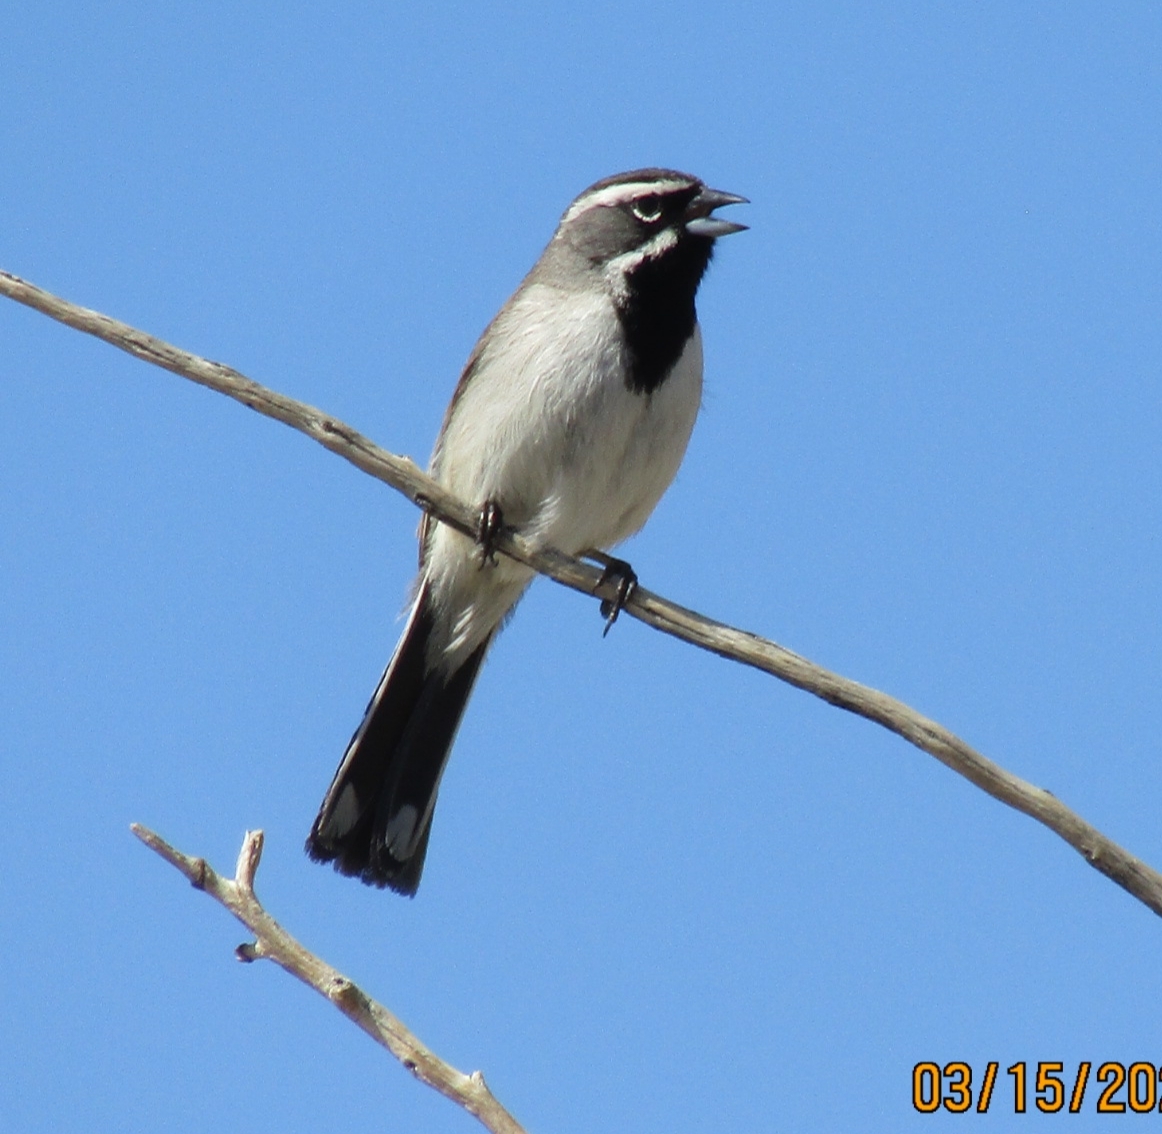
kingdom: Animalia
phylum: Chordata
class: Aves
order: Passeriformes
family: Passerellidae
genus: Amphispiza
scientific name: Amphispiza bilineata
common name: Black-throated sparrow
